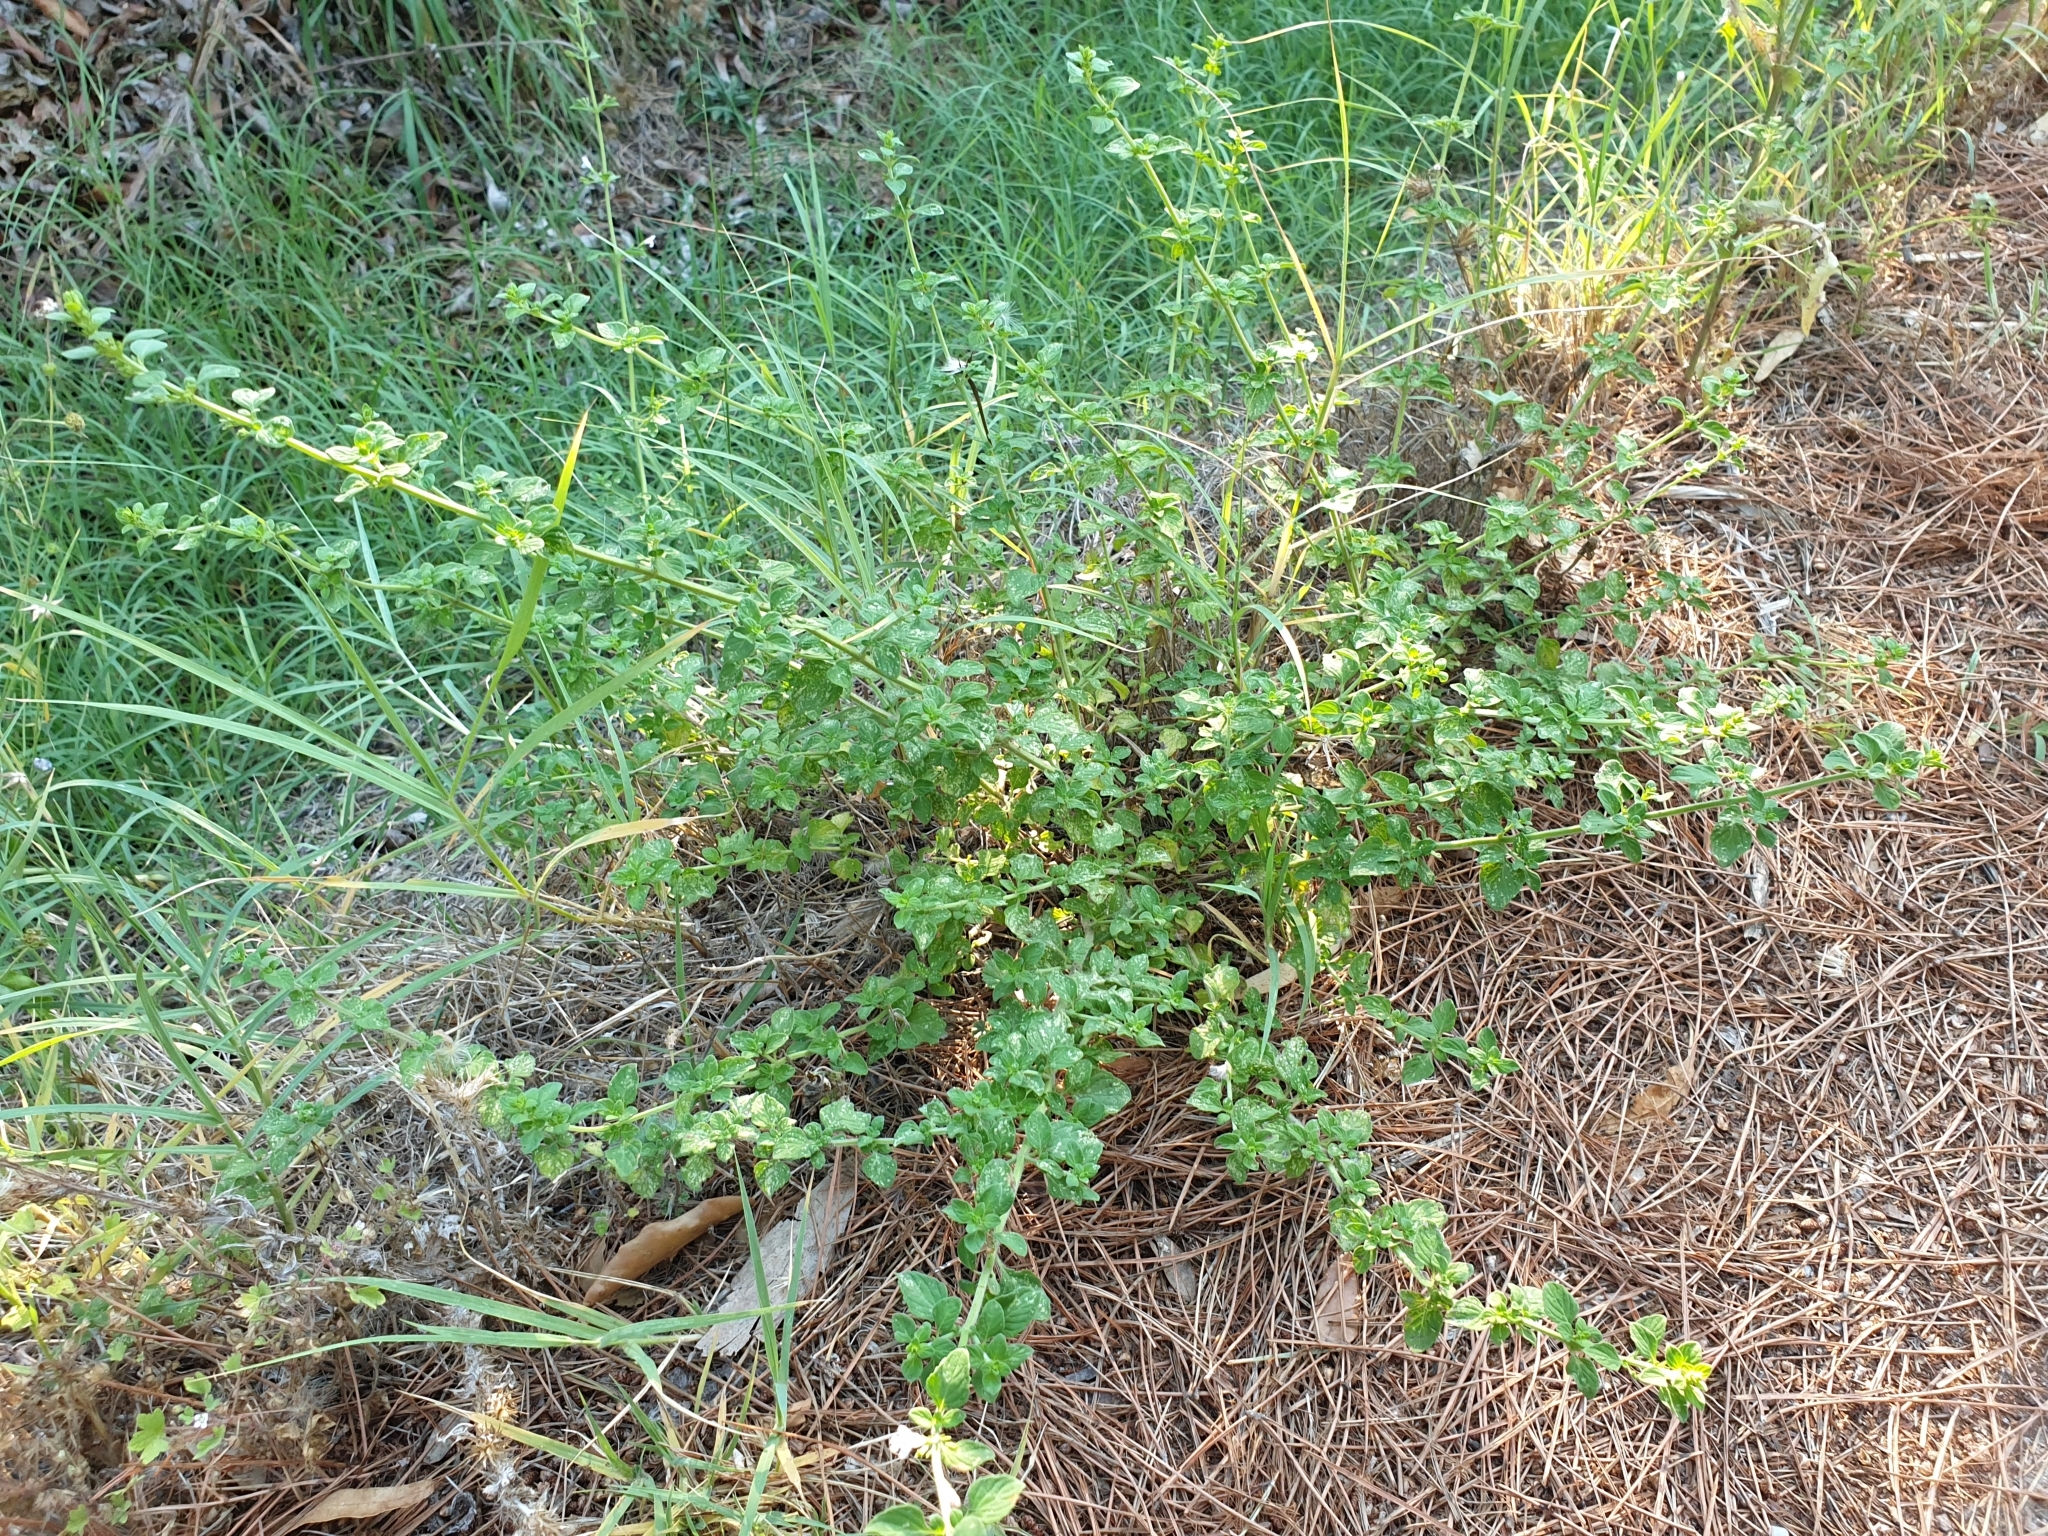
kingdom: Plantae
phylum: Tracheophyta
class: Magnoliopsida
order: Lamiales
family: Lamiaceae
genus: Clinopodium
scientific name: Clinopodium nepeta
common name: Lesser calamint
